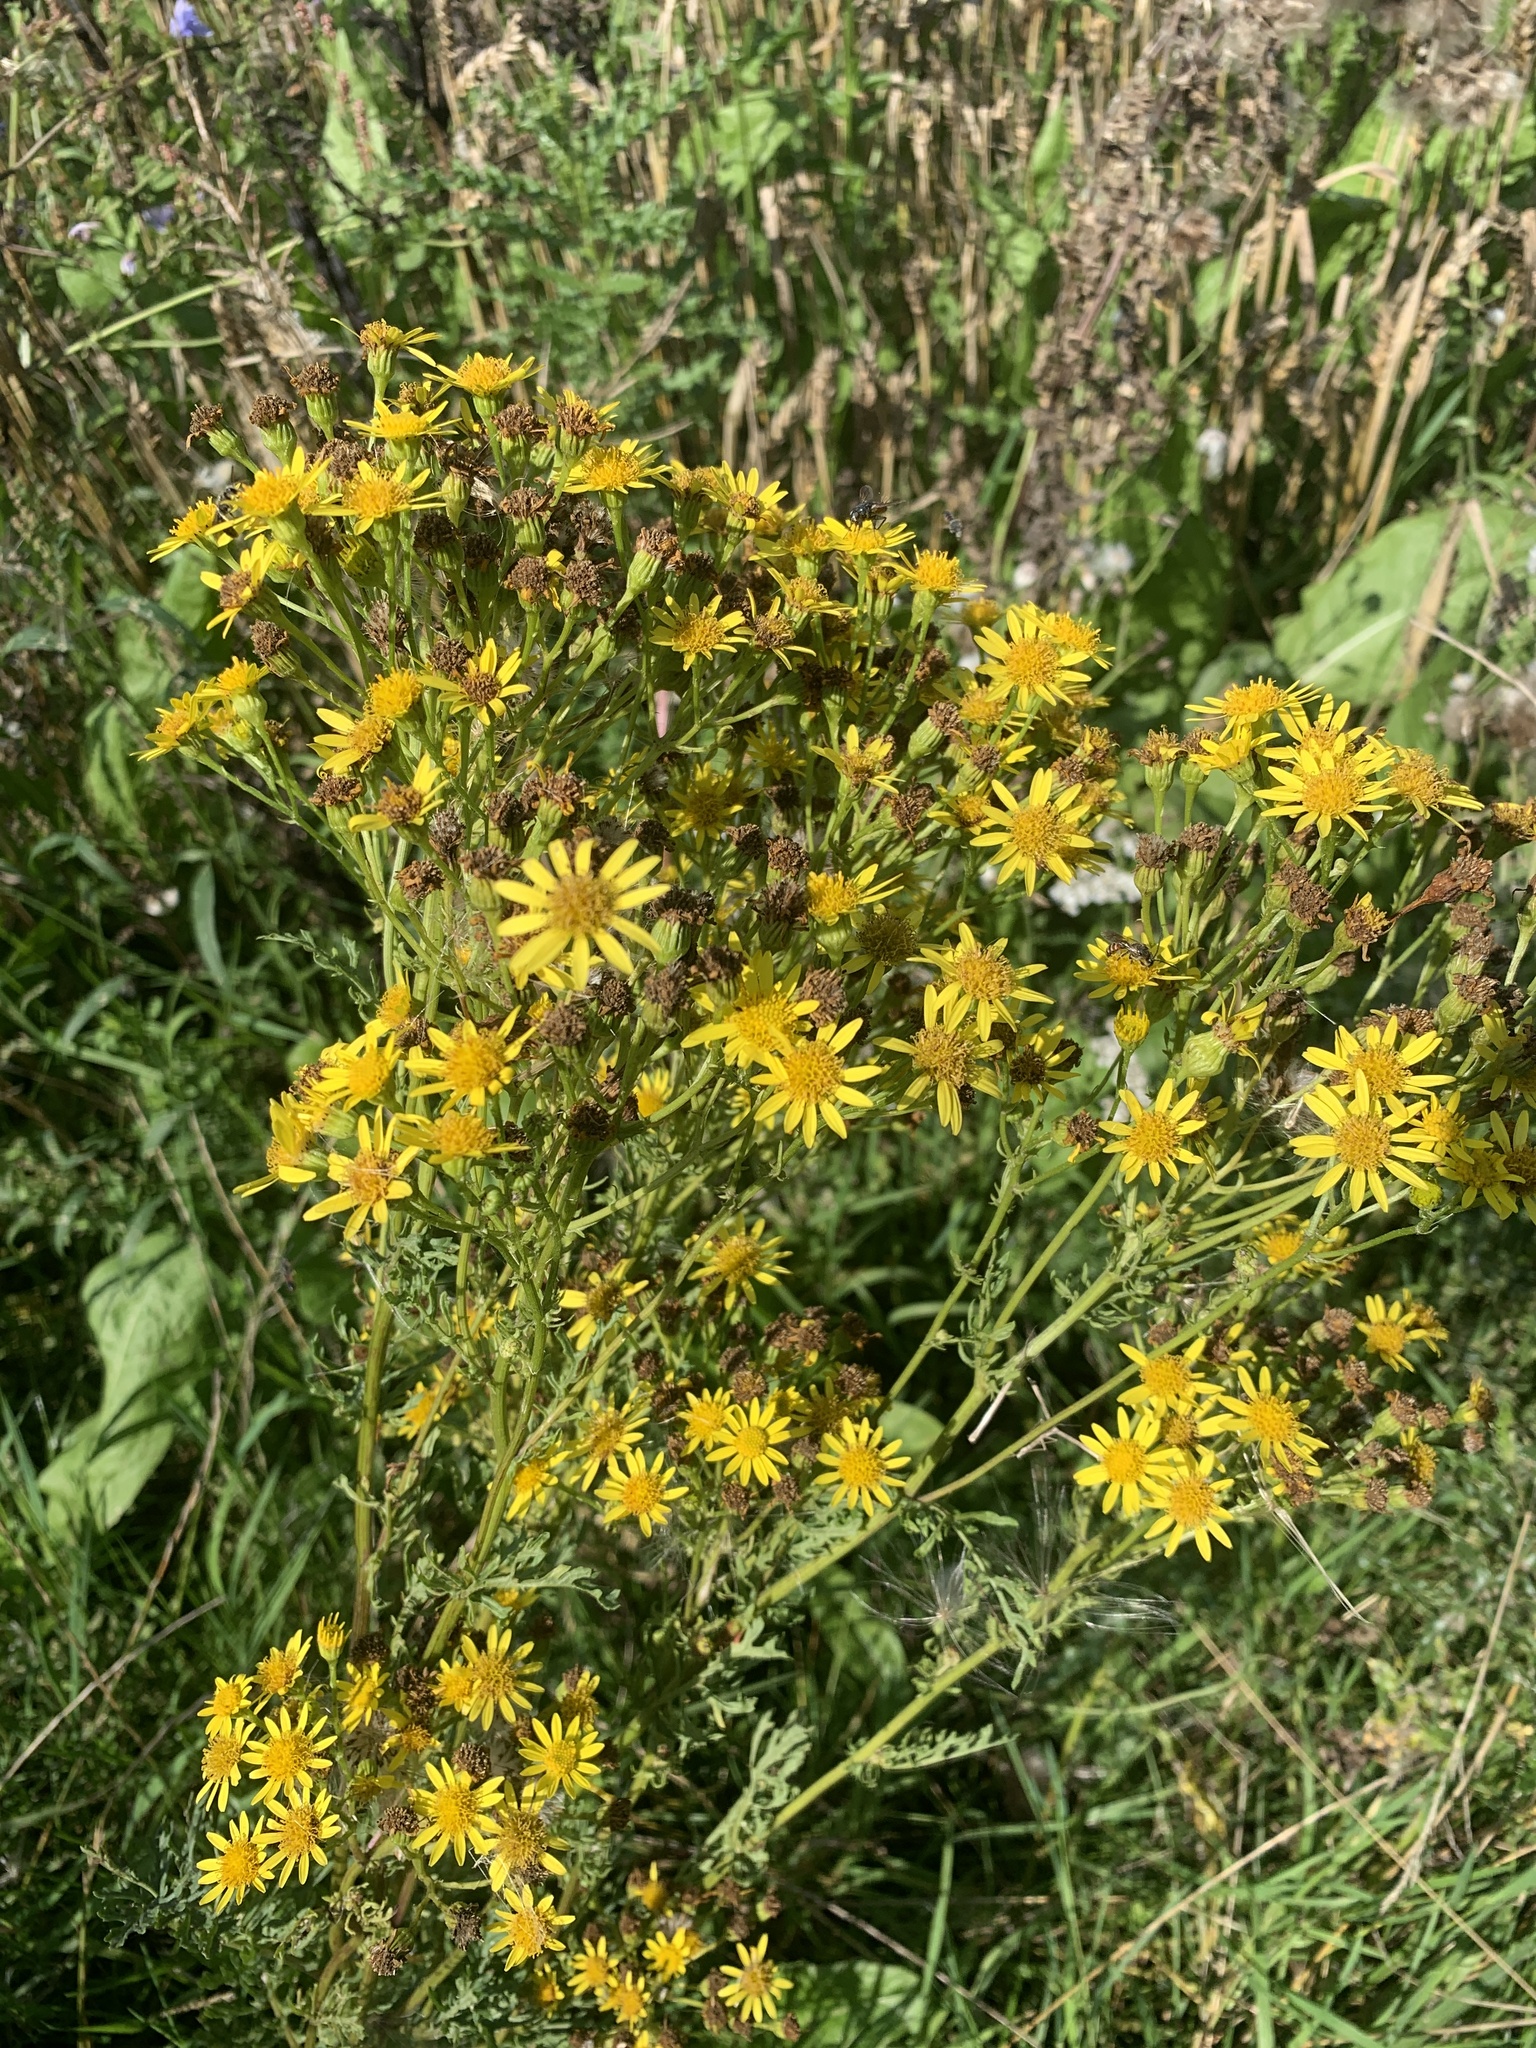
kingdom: Plantae
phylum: Tracheophyta
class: Magnoliopsida
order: Asterales
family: Asteraceae
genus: Jacobaea
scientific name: Jacobaea vulgaris
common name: Stinking willie
